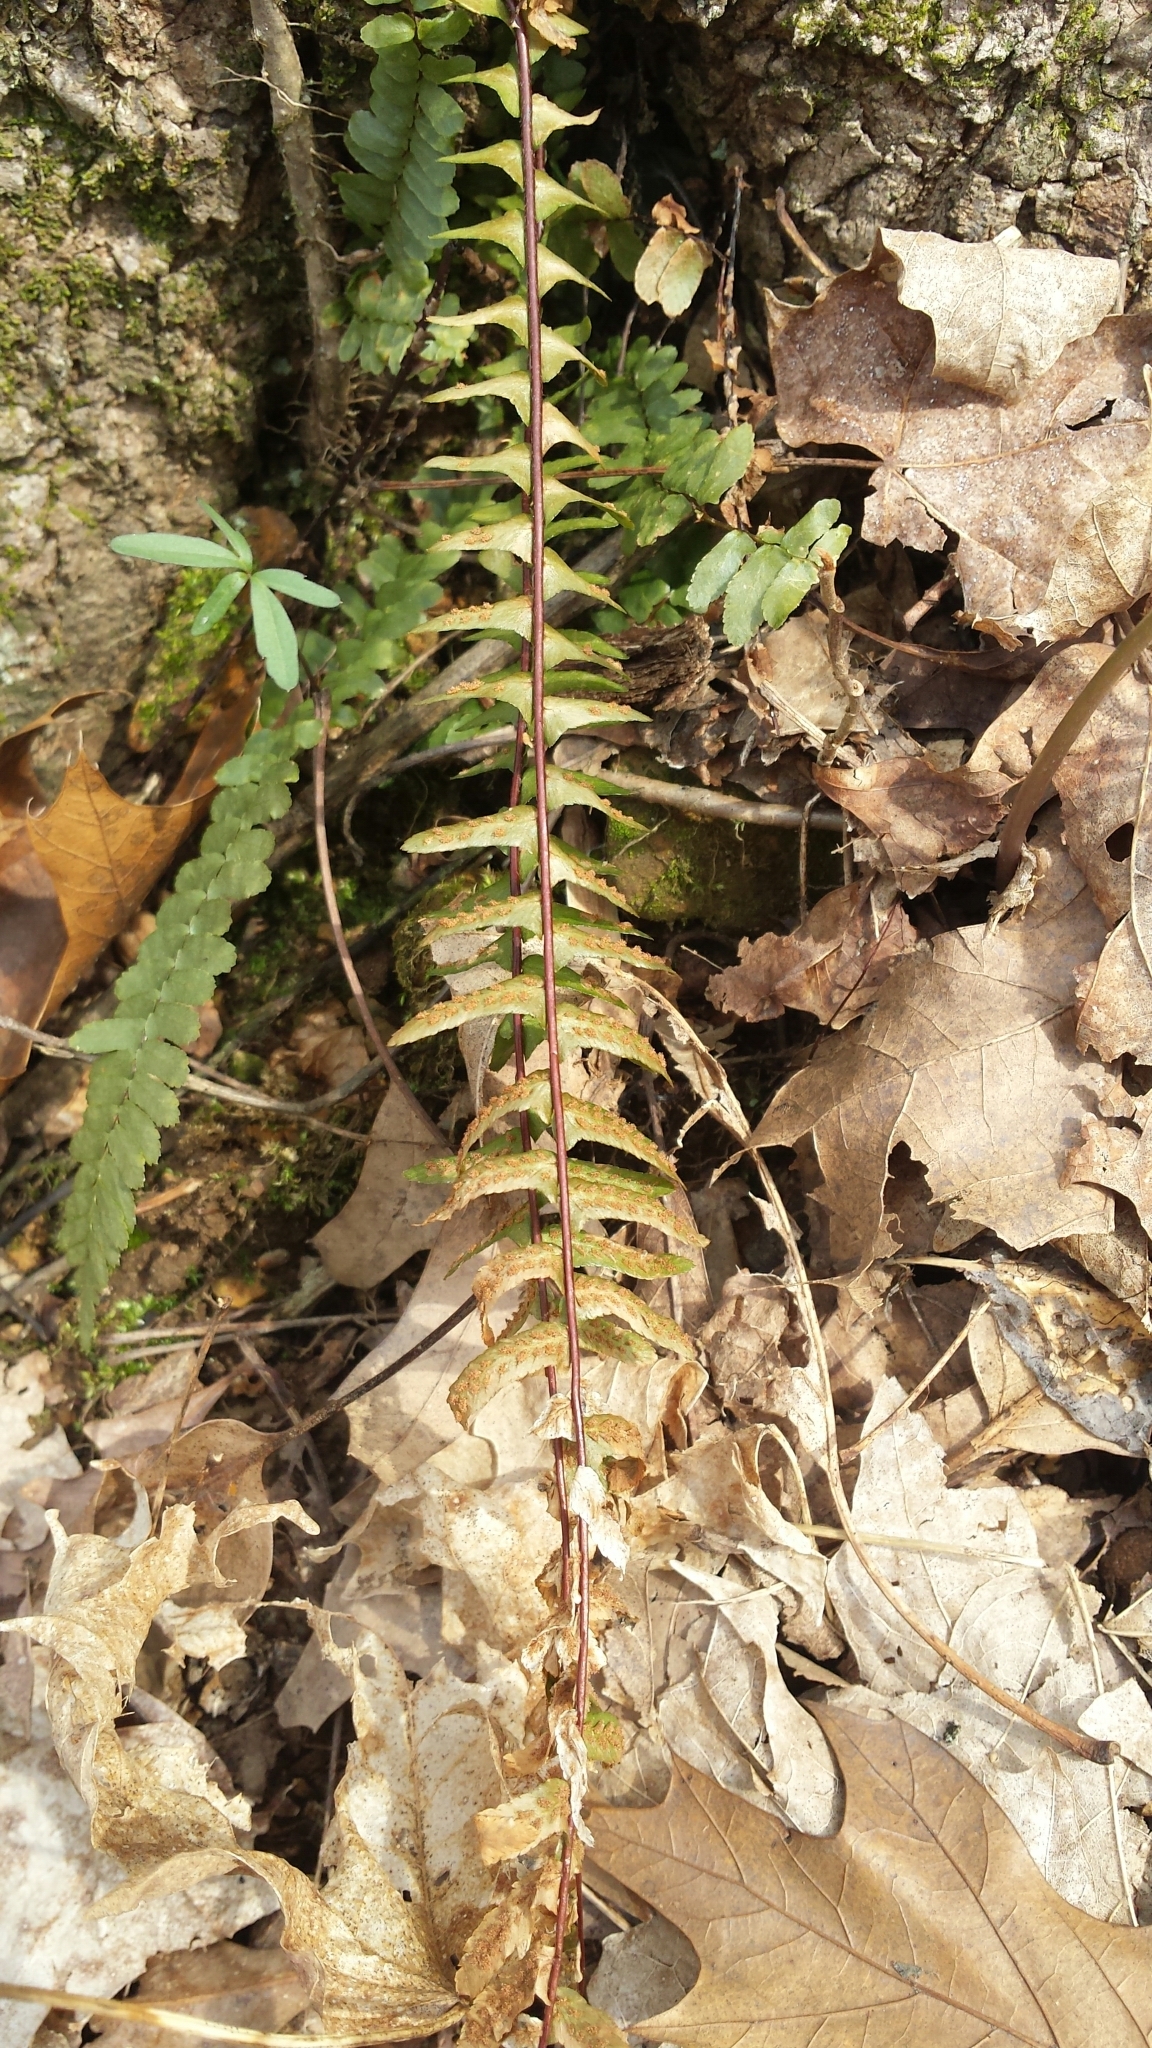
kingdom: Plantae
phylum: Tracheophyta
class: Polypodiopsida
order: Polypodiales
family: Aspleniaceae
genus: Asplenium
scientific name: Asplenium platyneuron
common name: Ebony spleenwort
